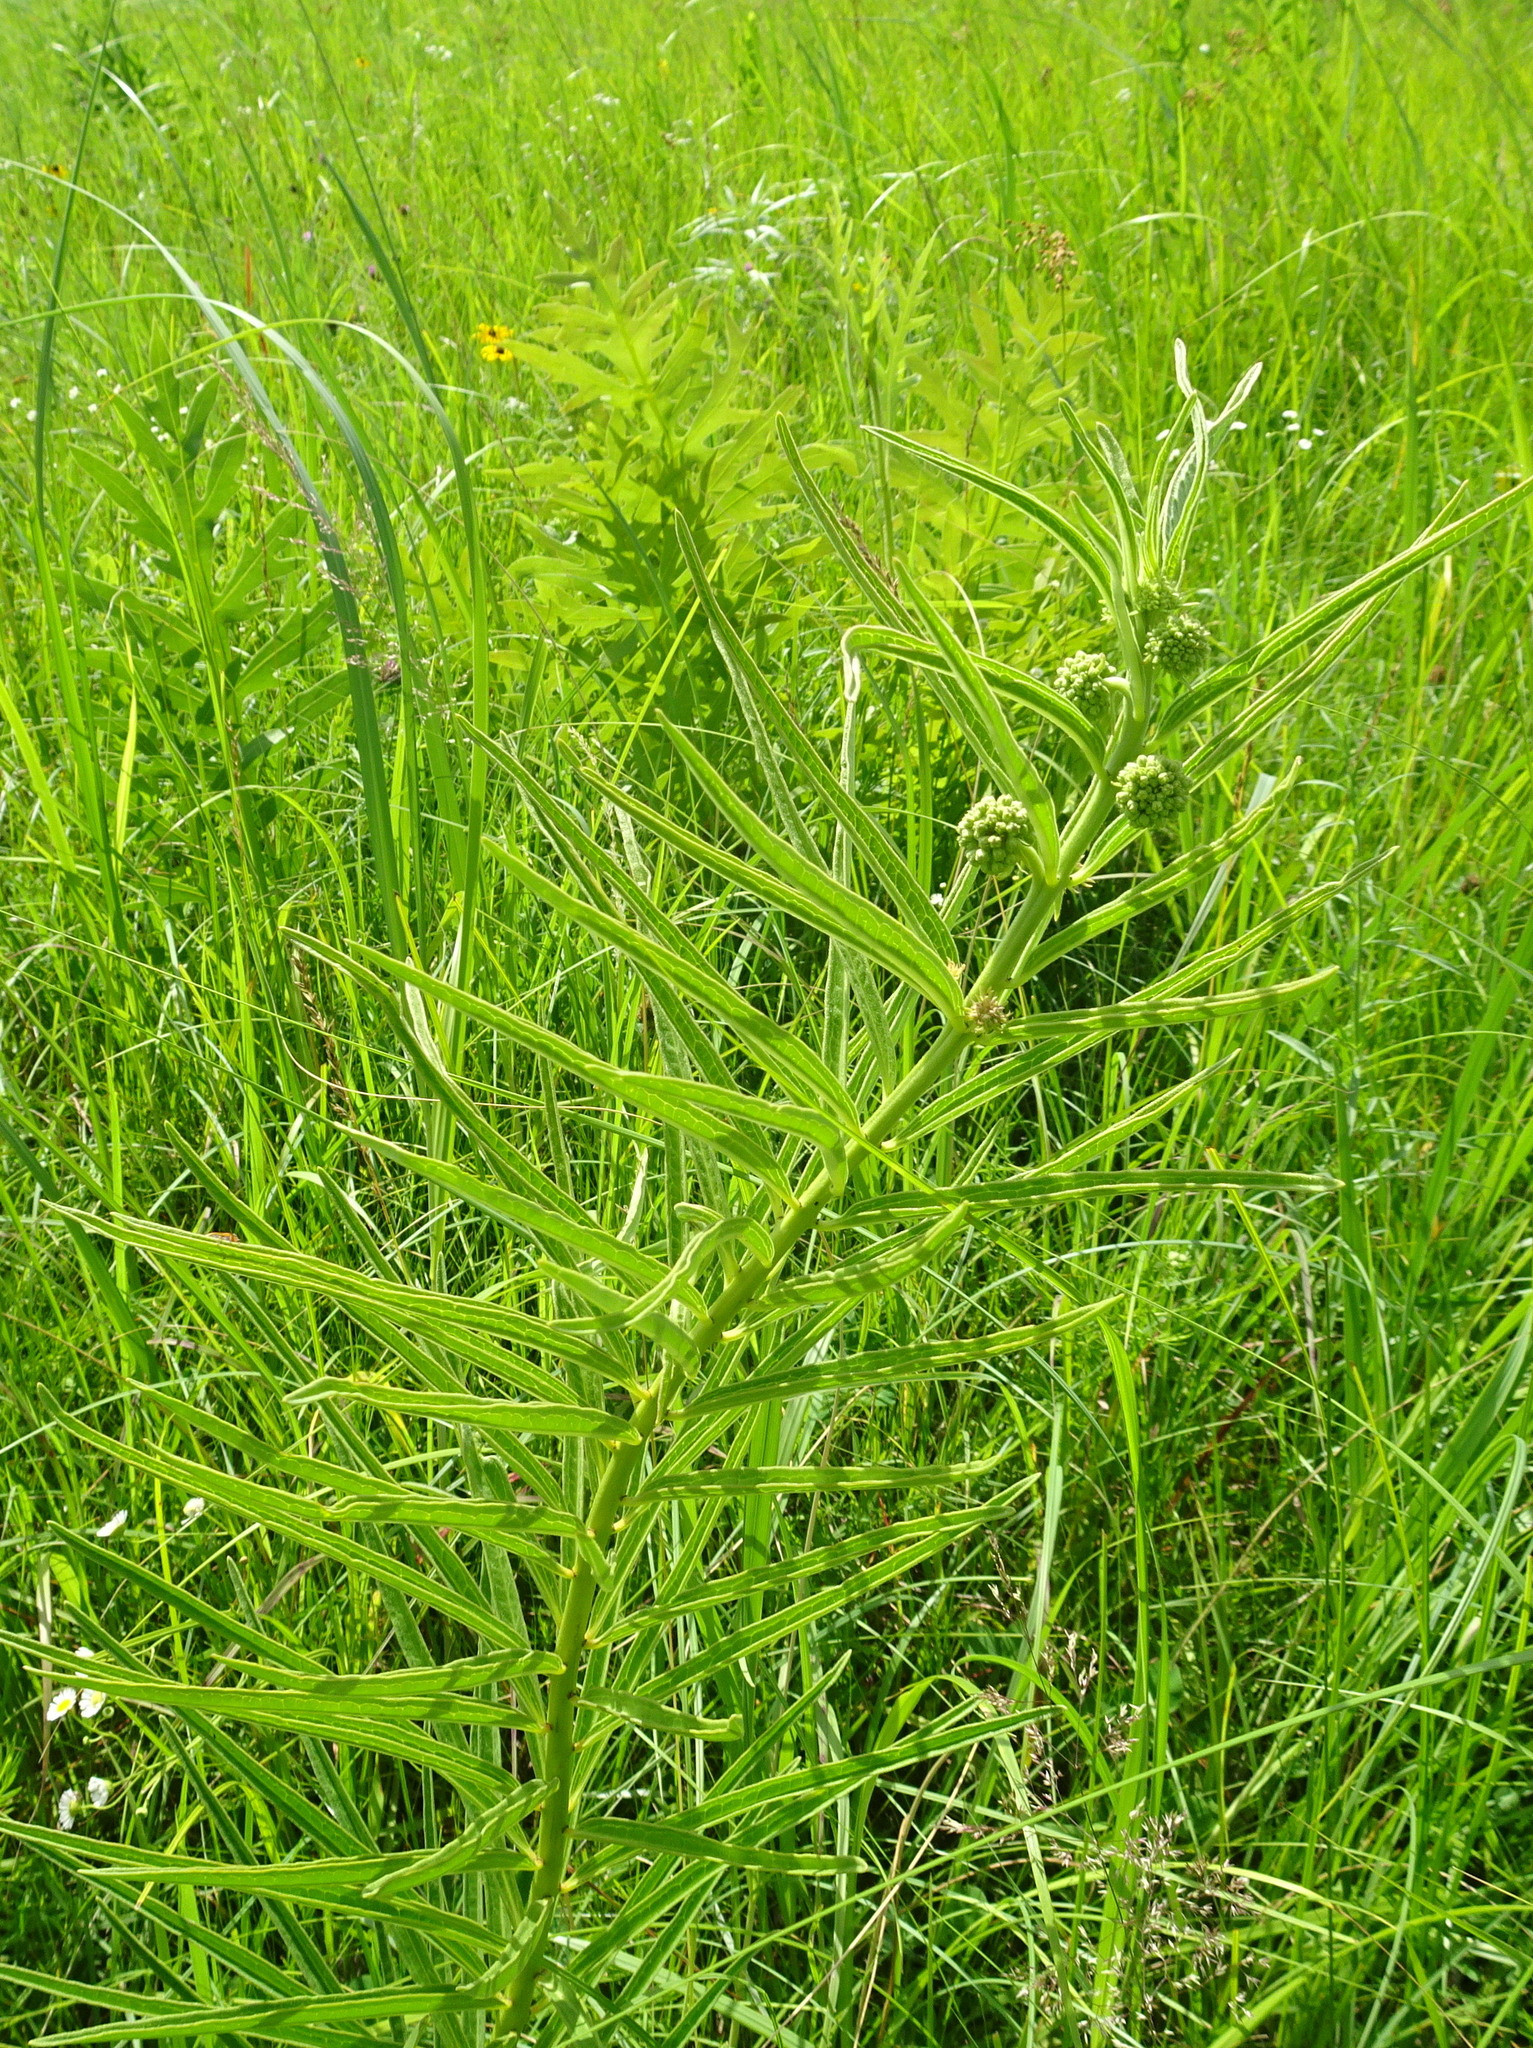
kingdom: Plantae
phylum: Tracheophyta
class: Magnoliopsida
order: Gentianales
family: Apocynaceae
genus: Asclepias
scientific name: Asclepias hirtella
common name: Prairie milkweed
